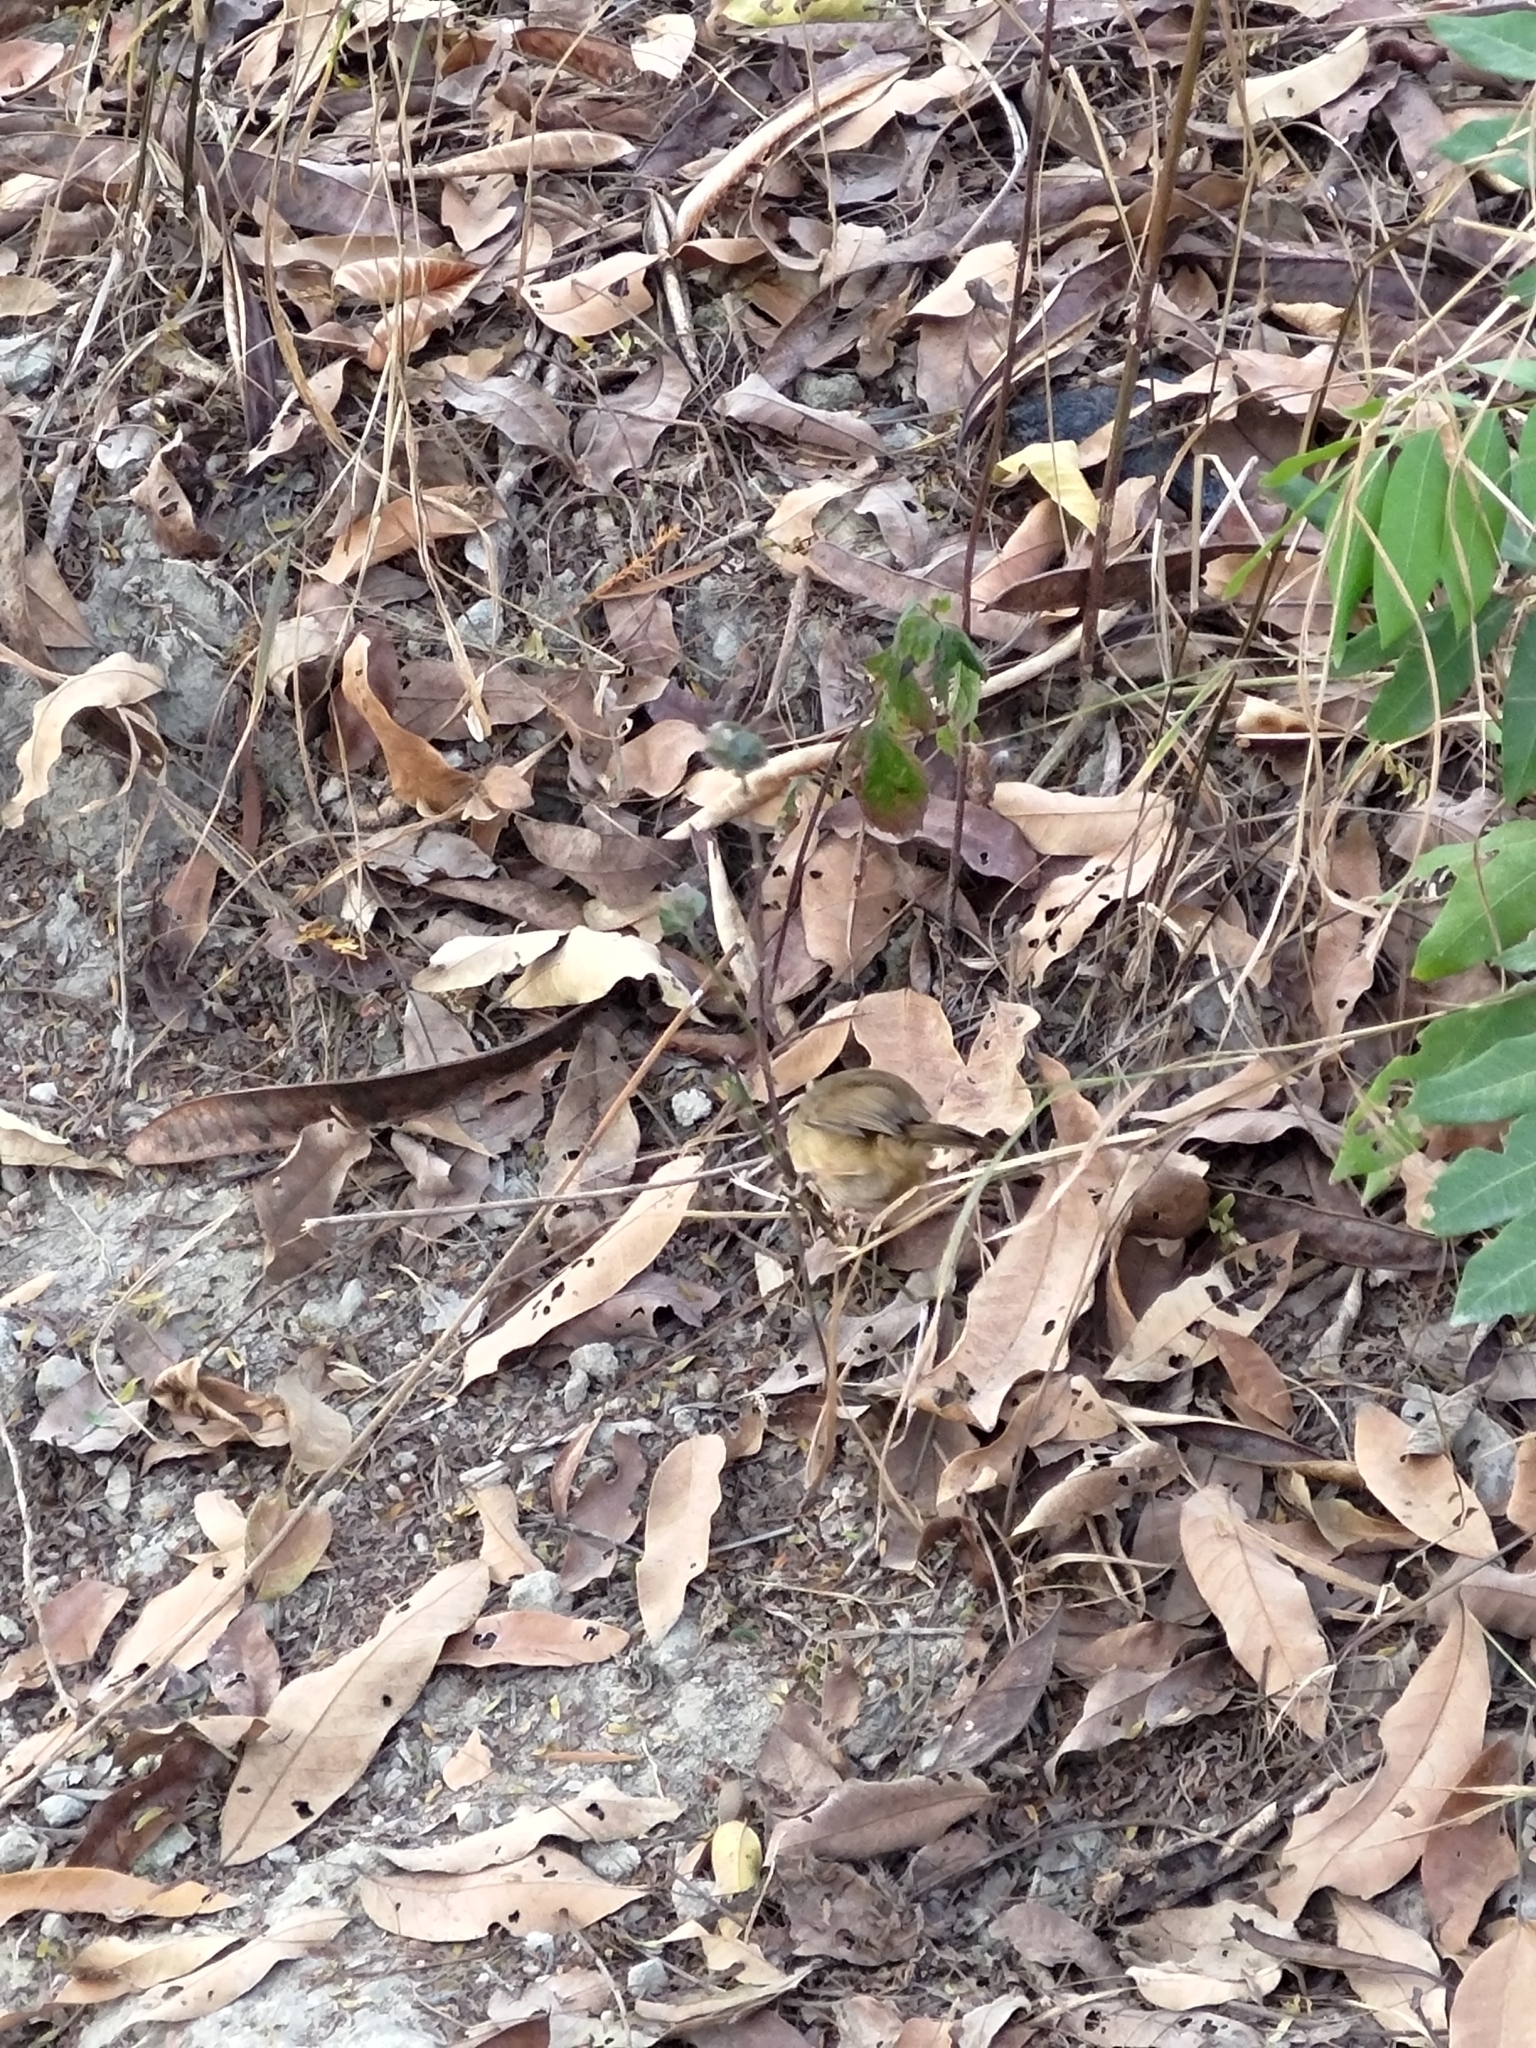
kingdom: Animalia
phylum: Chordata
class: Aves
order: Passeriformes
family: Pellorneidae
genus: Alcippe
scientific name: Alcippe morrisonia
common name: Grey-cheeked fulvetta
